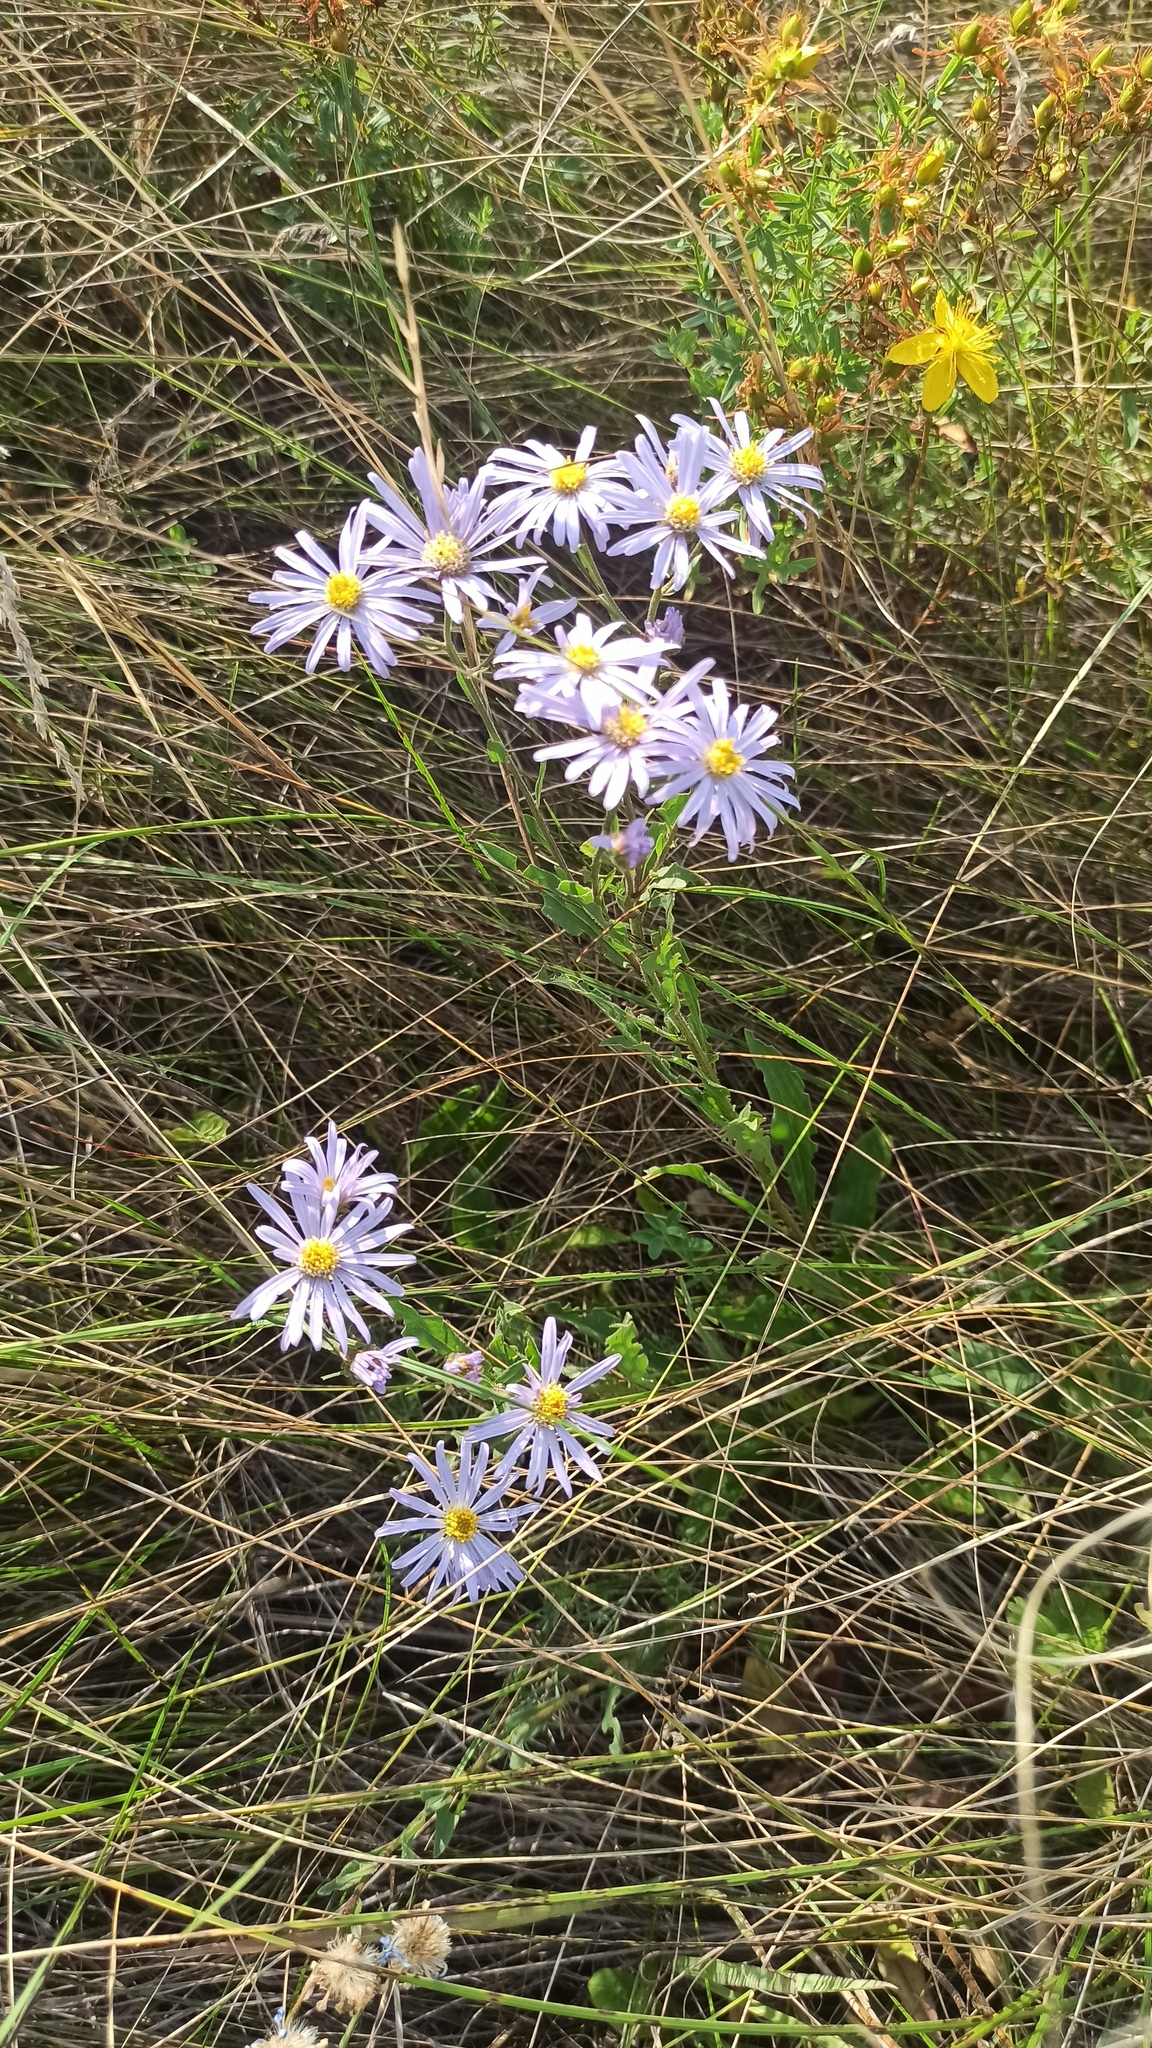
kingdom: Plantae
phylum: Tracheophyta
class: Magnoliopsida
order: Asterales
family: Asteraceae
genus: Aster
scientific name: Aster amellus
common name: European michaelmas daisy
